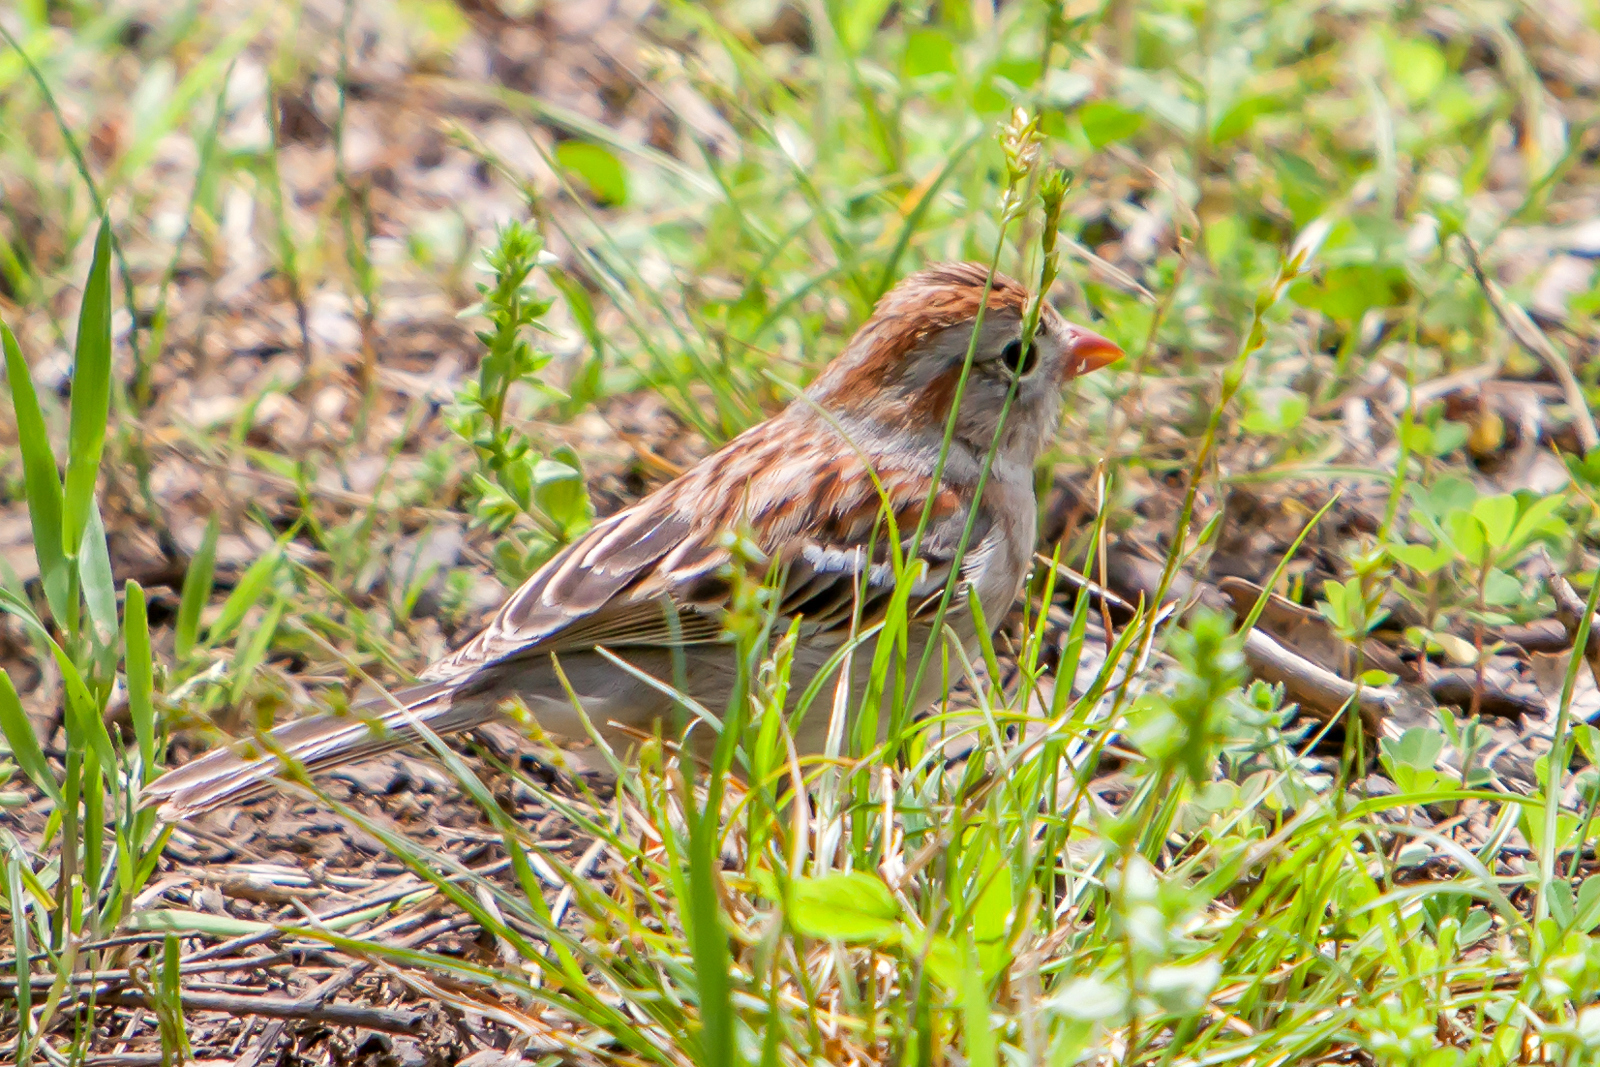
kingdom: Animalia
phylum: Chordata
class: Aves
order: Passeriformes
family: Passerellidae
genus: Spizella
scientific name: Spizella pusilla
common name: Field sparrow
